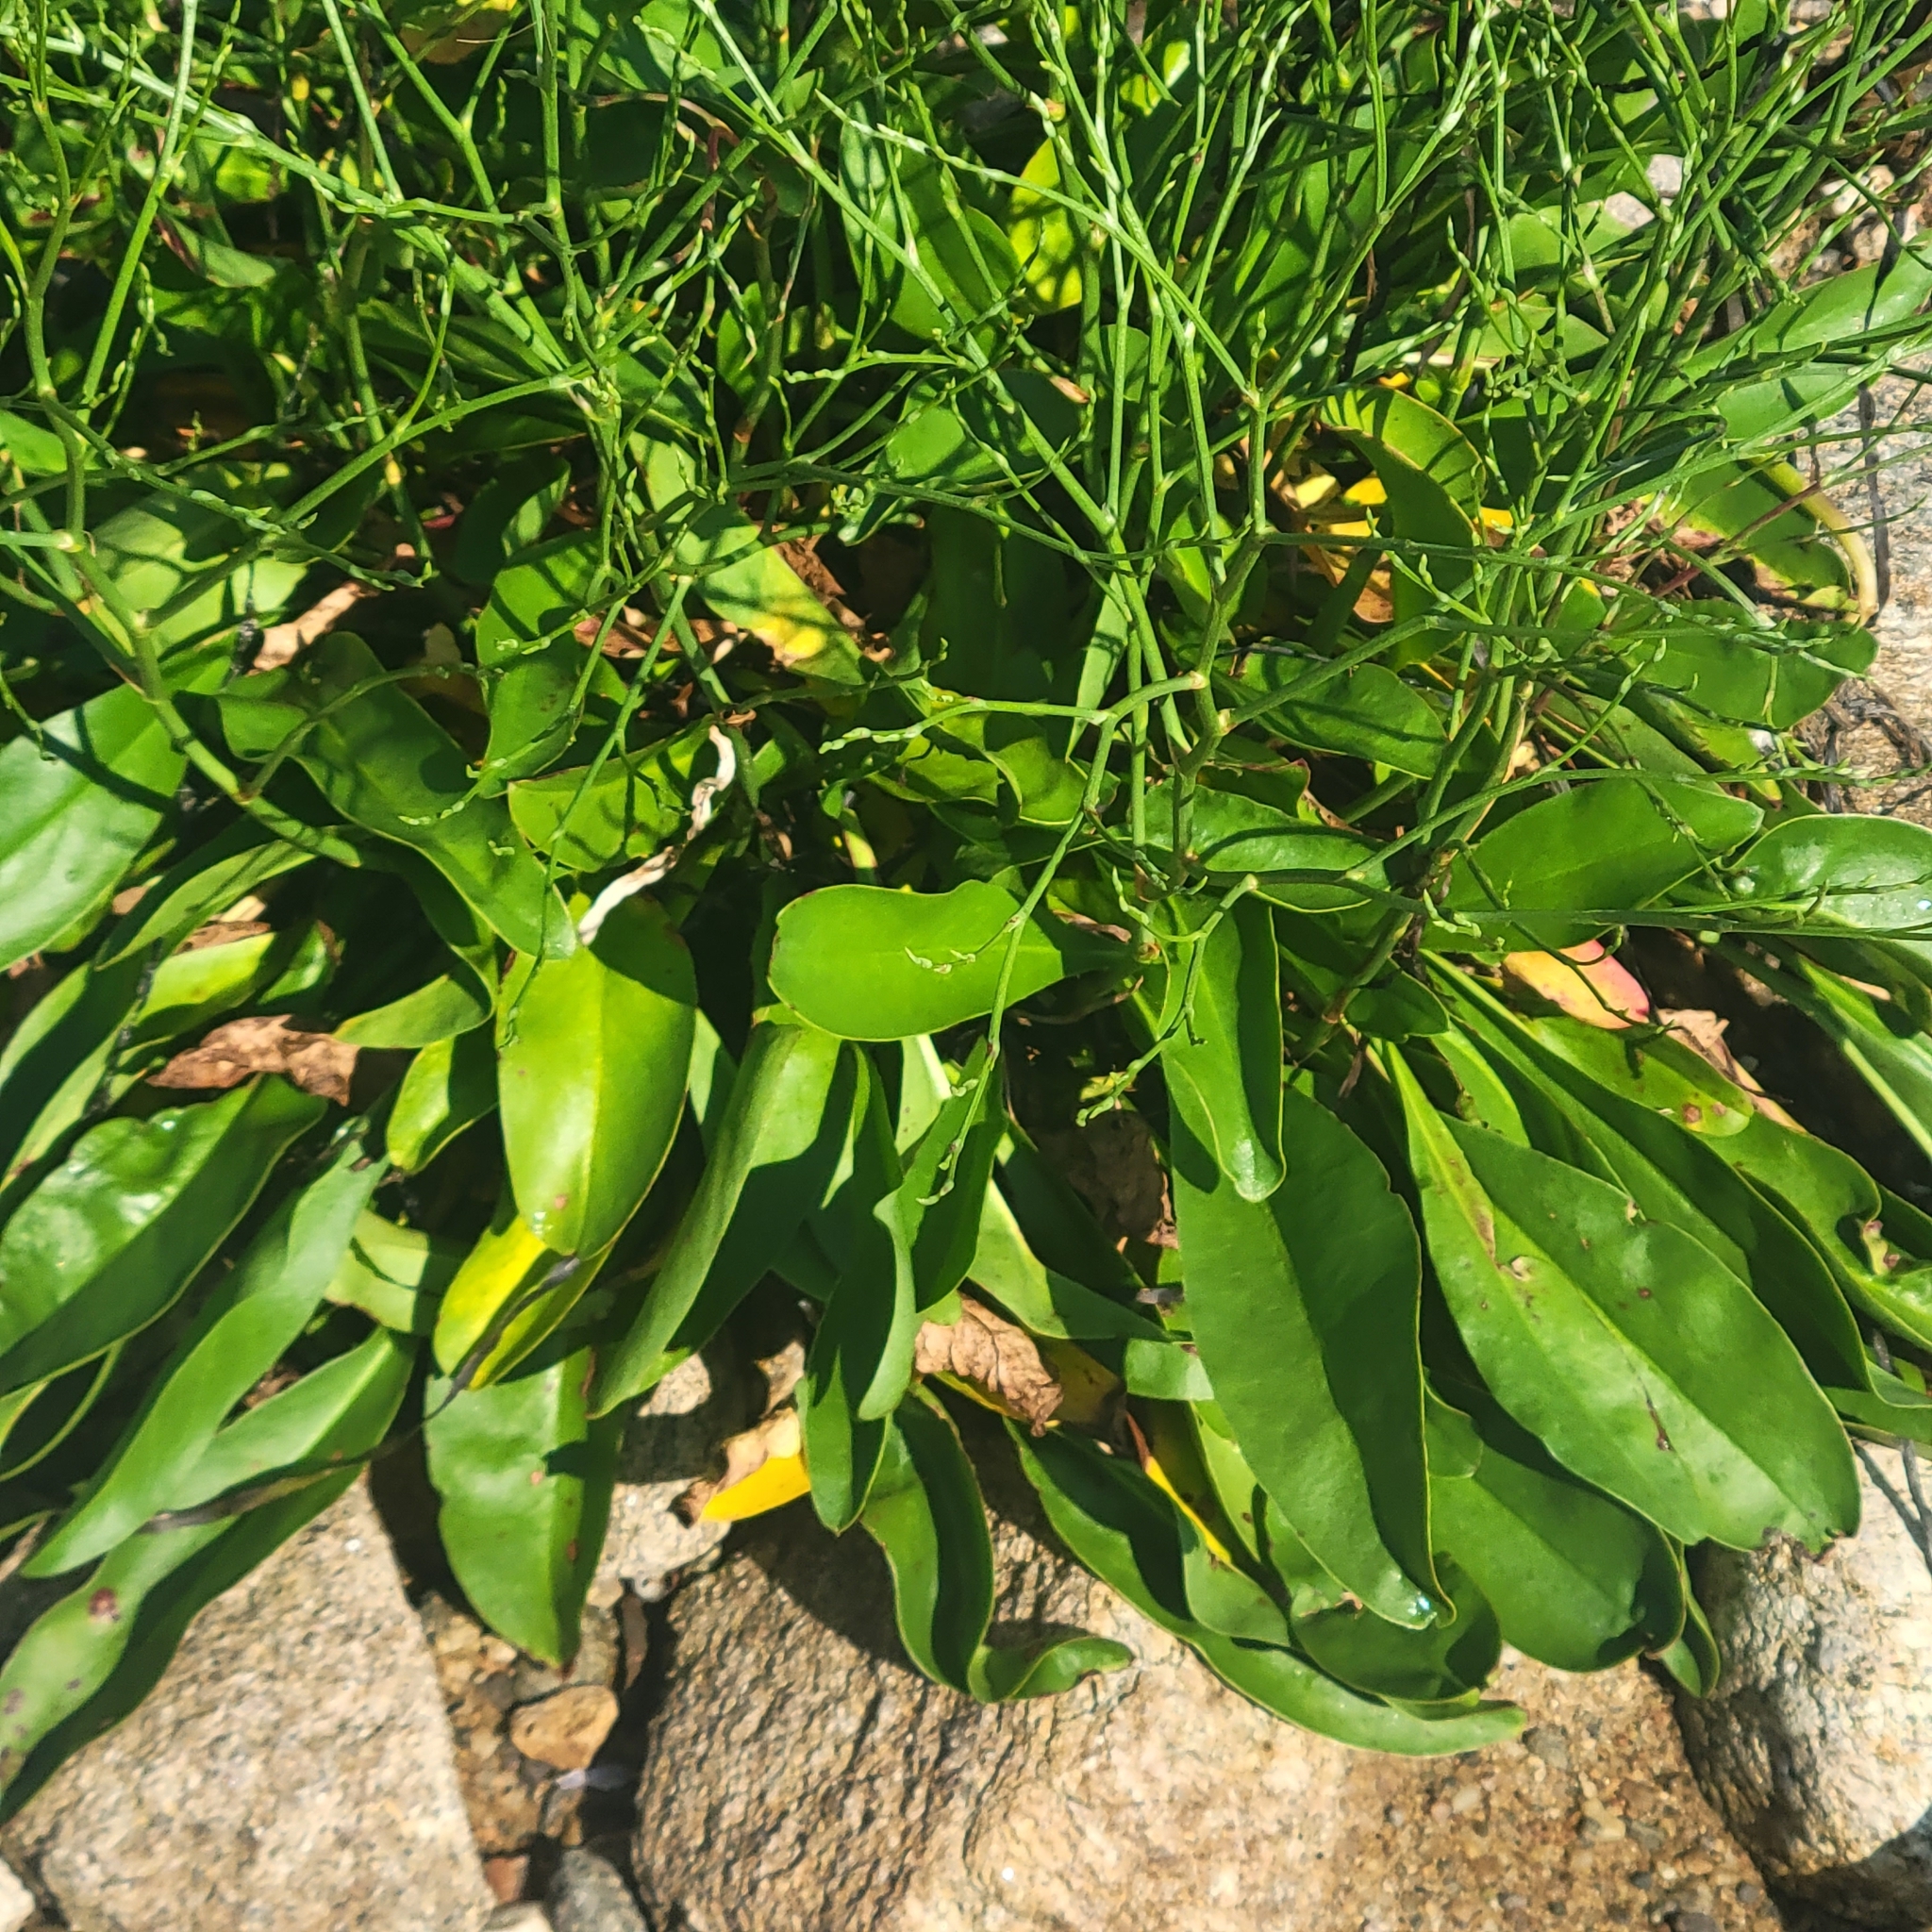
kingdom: Plantae
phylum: Tracheophyta
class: Magnoliopsida
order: Caryophyllales
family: Plumbaginaceae
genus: Limonium
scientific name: Limonium carolinianum
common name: Carolina sea lavender
